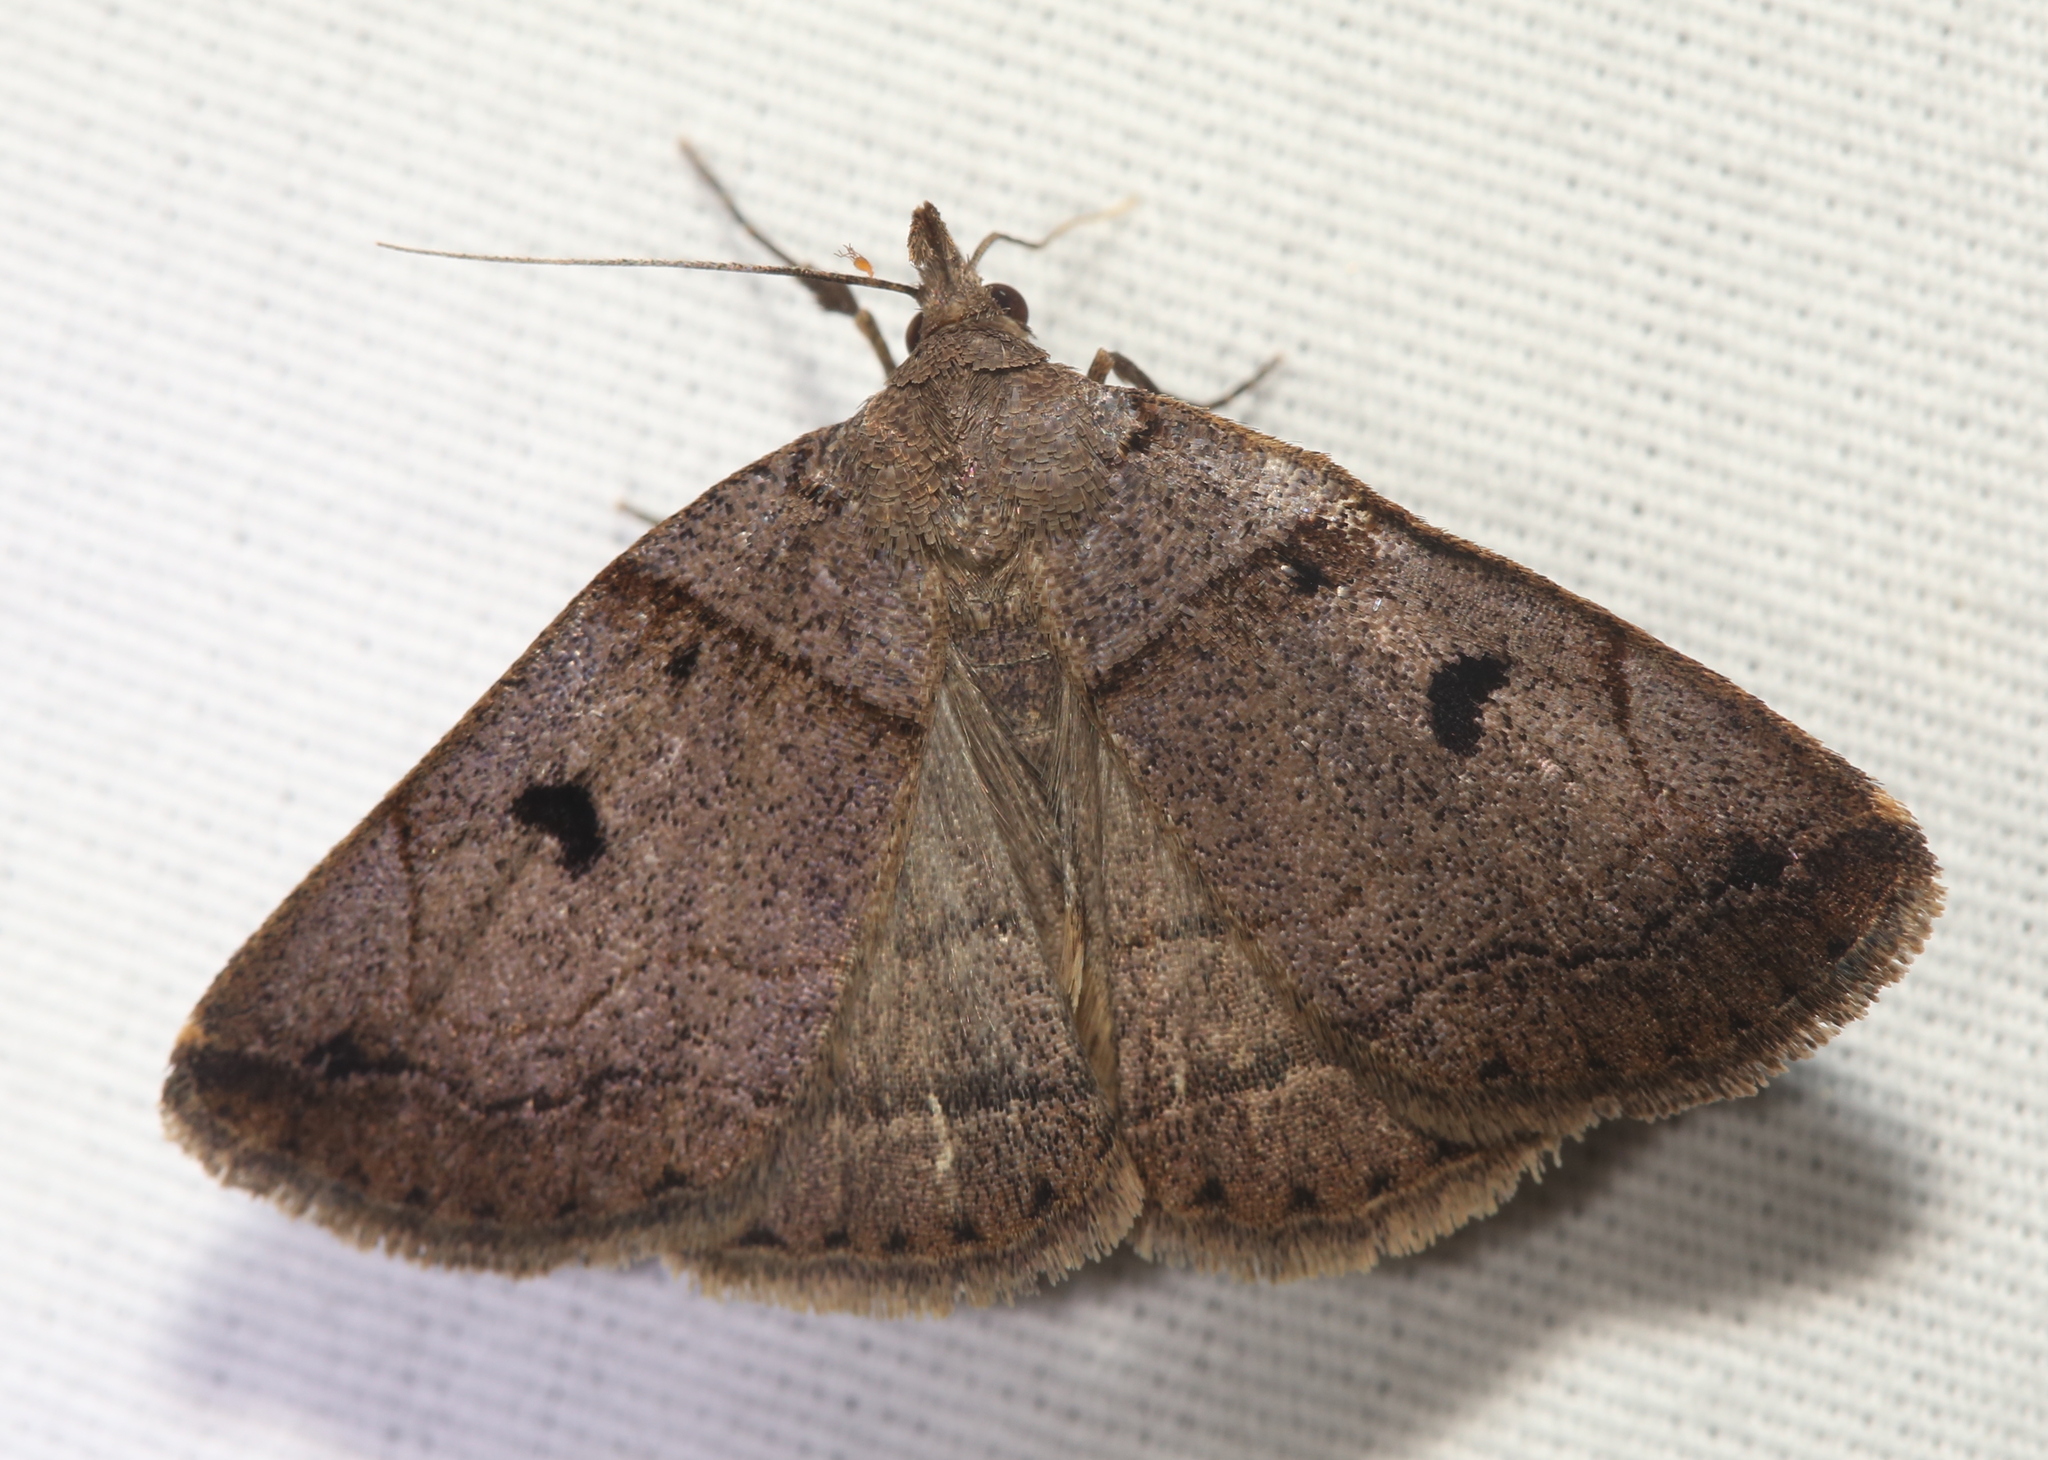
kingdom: Animalia
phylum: Arthropoda
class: Insecta
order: Lepidoptera
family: Erebidae
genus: Zanclognatha
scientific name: Zanclognatha laevigata
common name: Variable fan-foot
